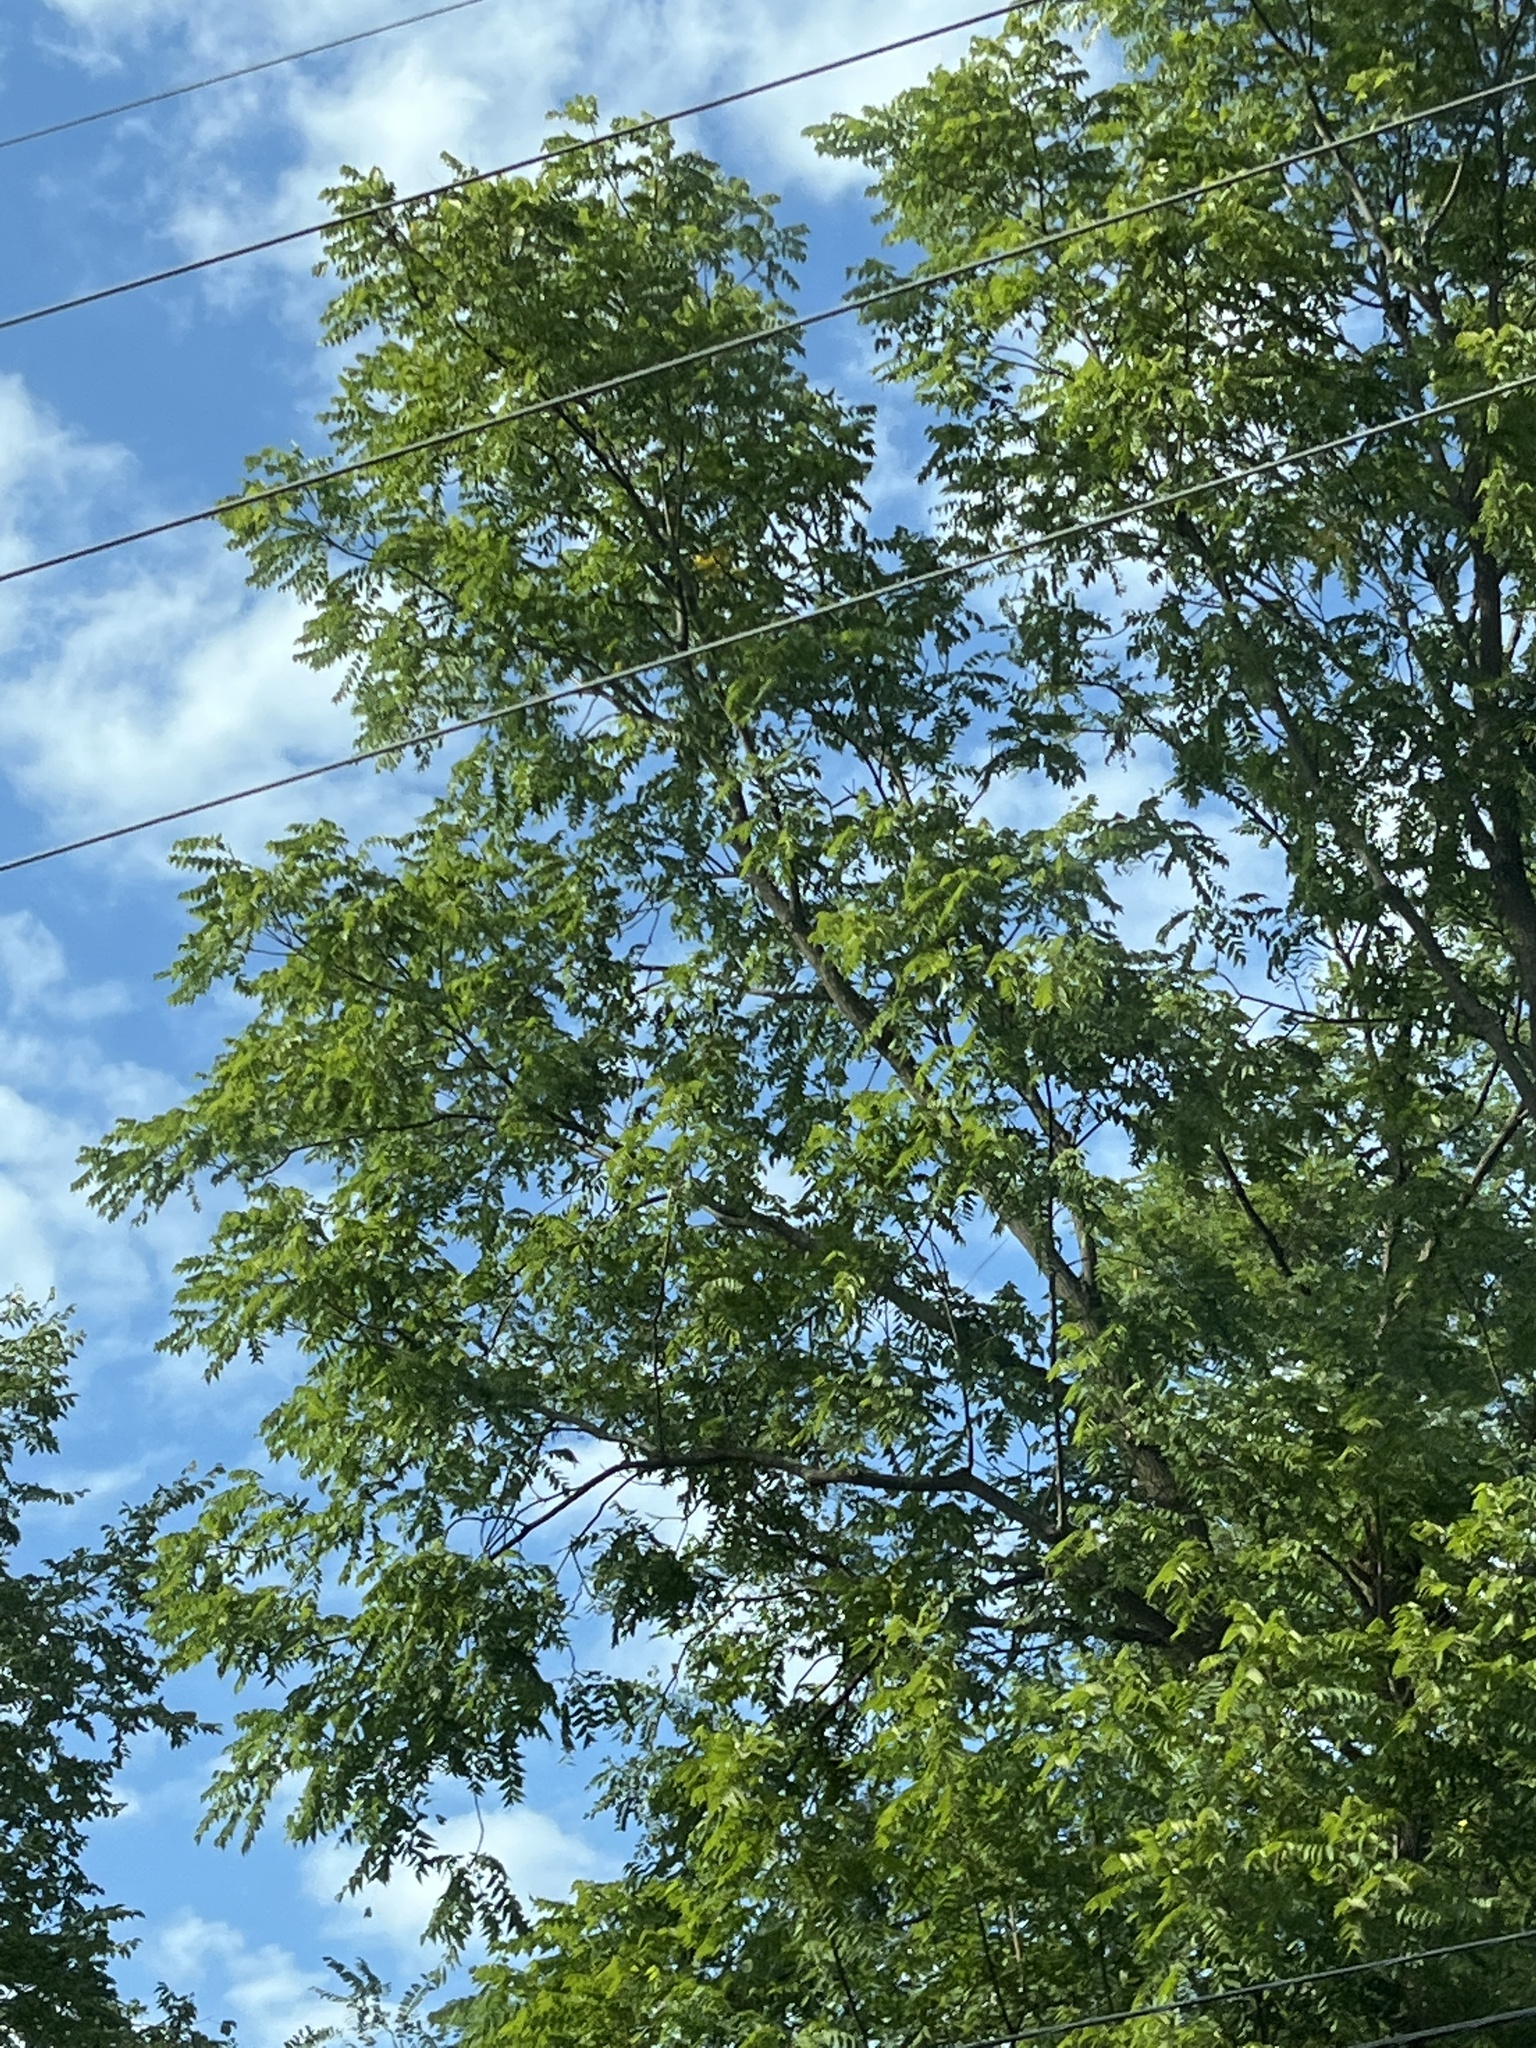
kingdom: Plantae
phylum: Tracheophyta
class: Magnoliopsida
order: Fabales
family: Fabaceae
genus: Robinia
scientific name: Robinia pseudoacacia
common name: Black locust
